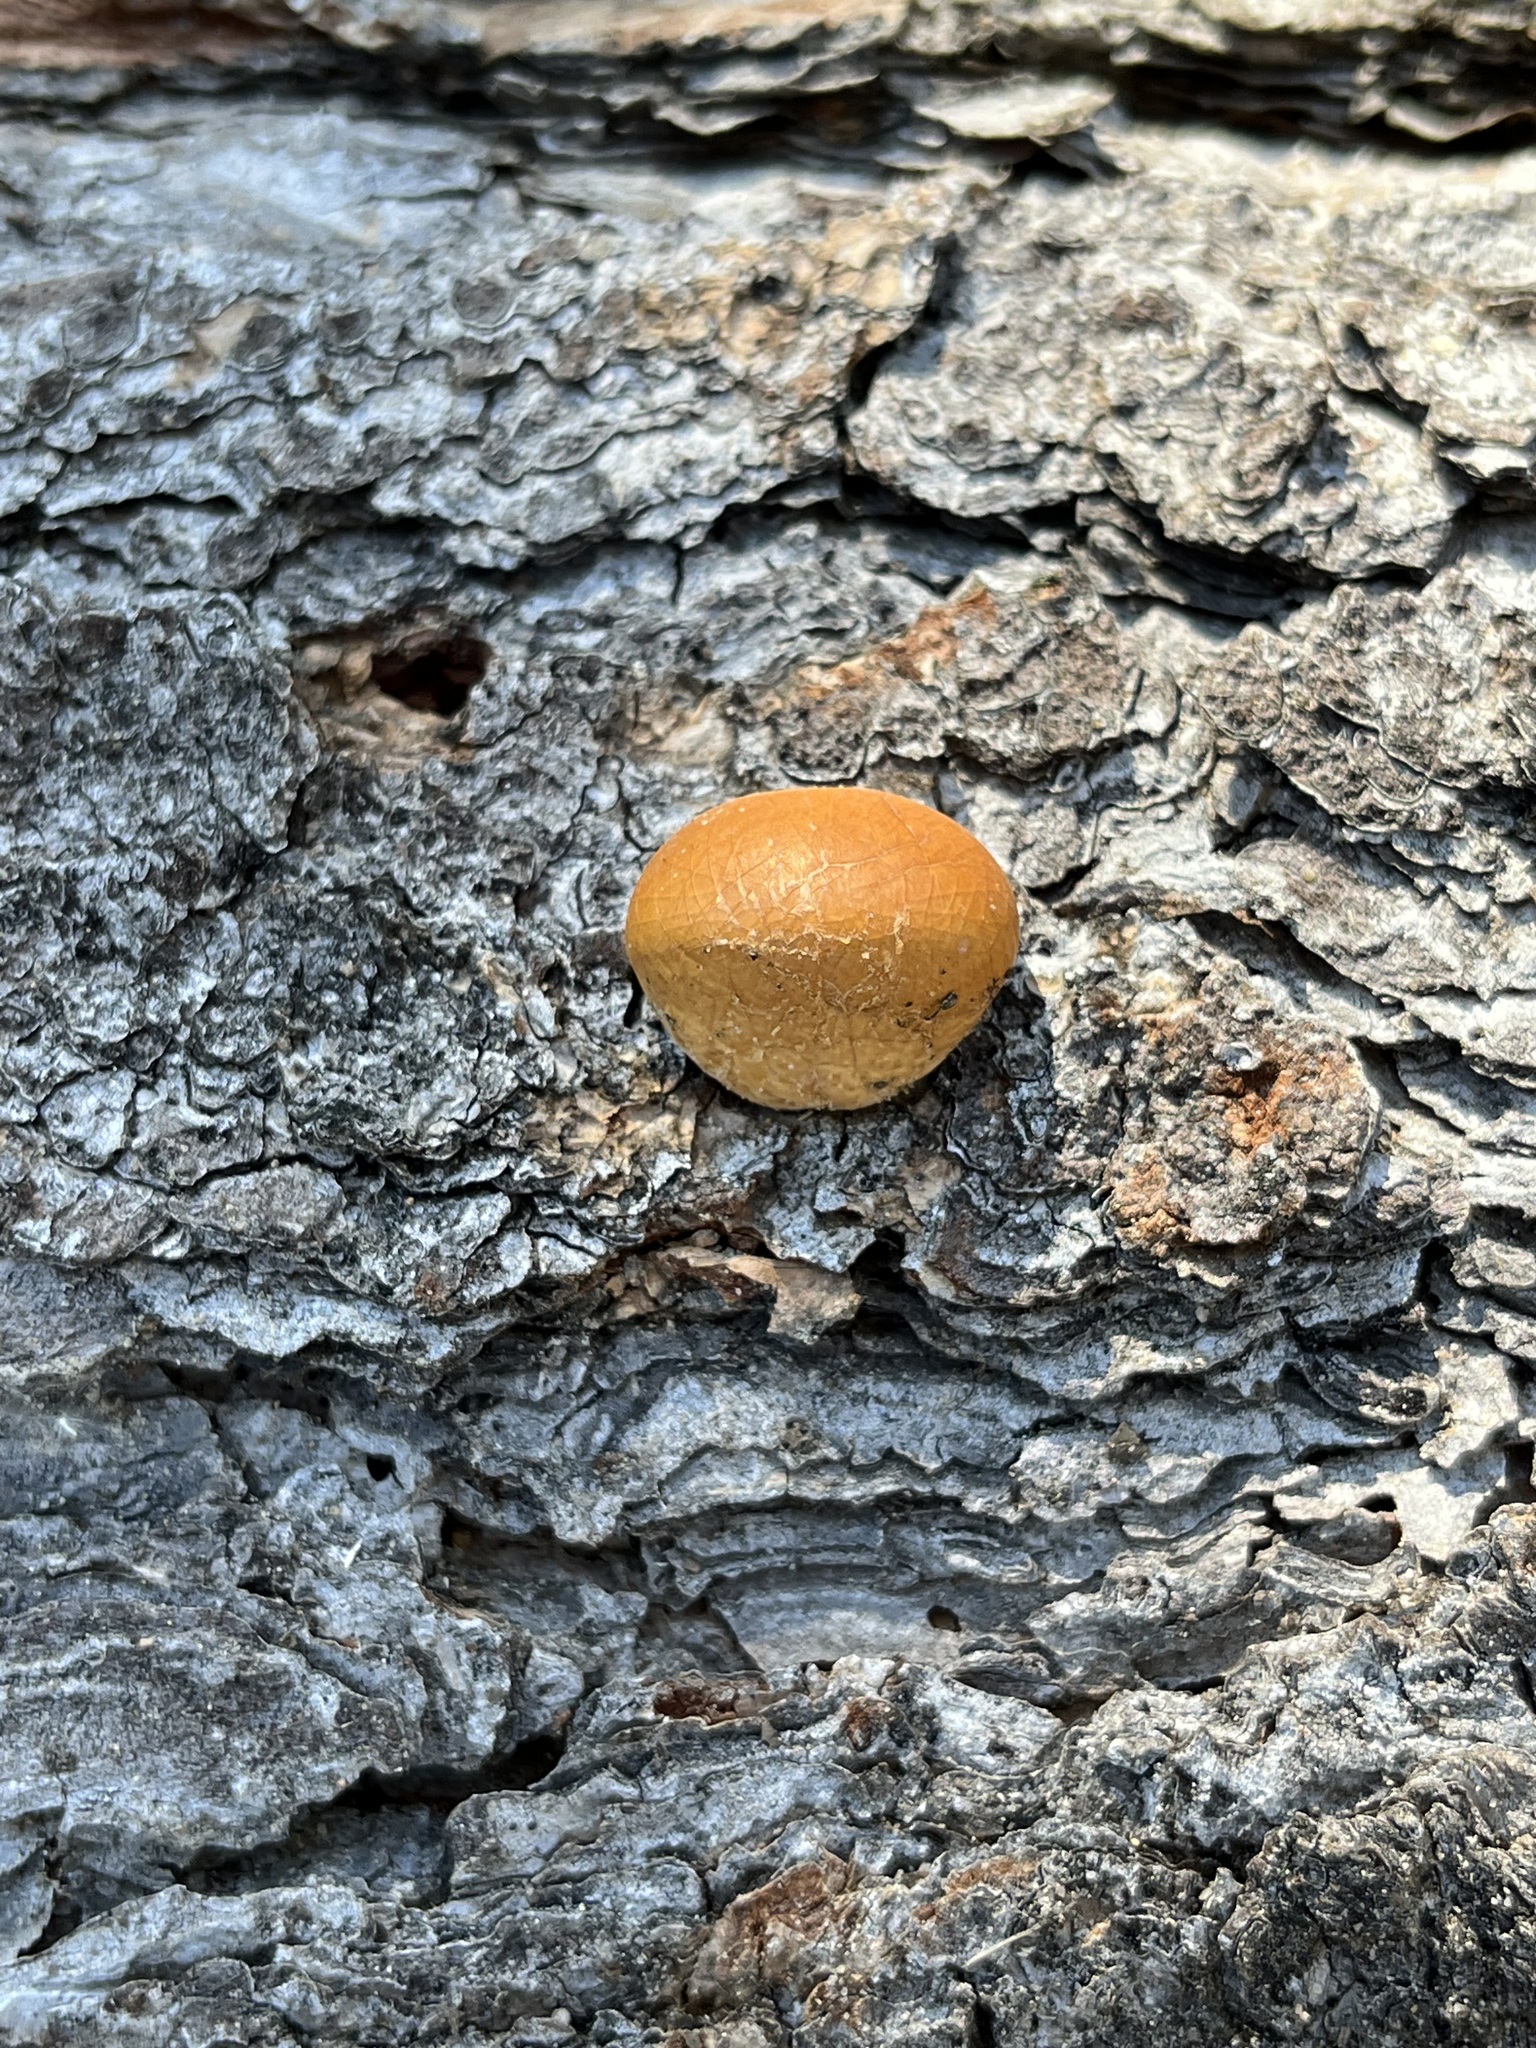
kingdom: Fungi
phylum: Basidiomycota
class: Agaricomycetes
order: Polyporales
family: Polyporaceae
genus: Cryptoporus
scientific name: Cryptoporus volvatus
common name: Veiled polypore
